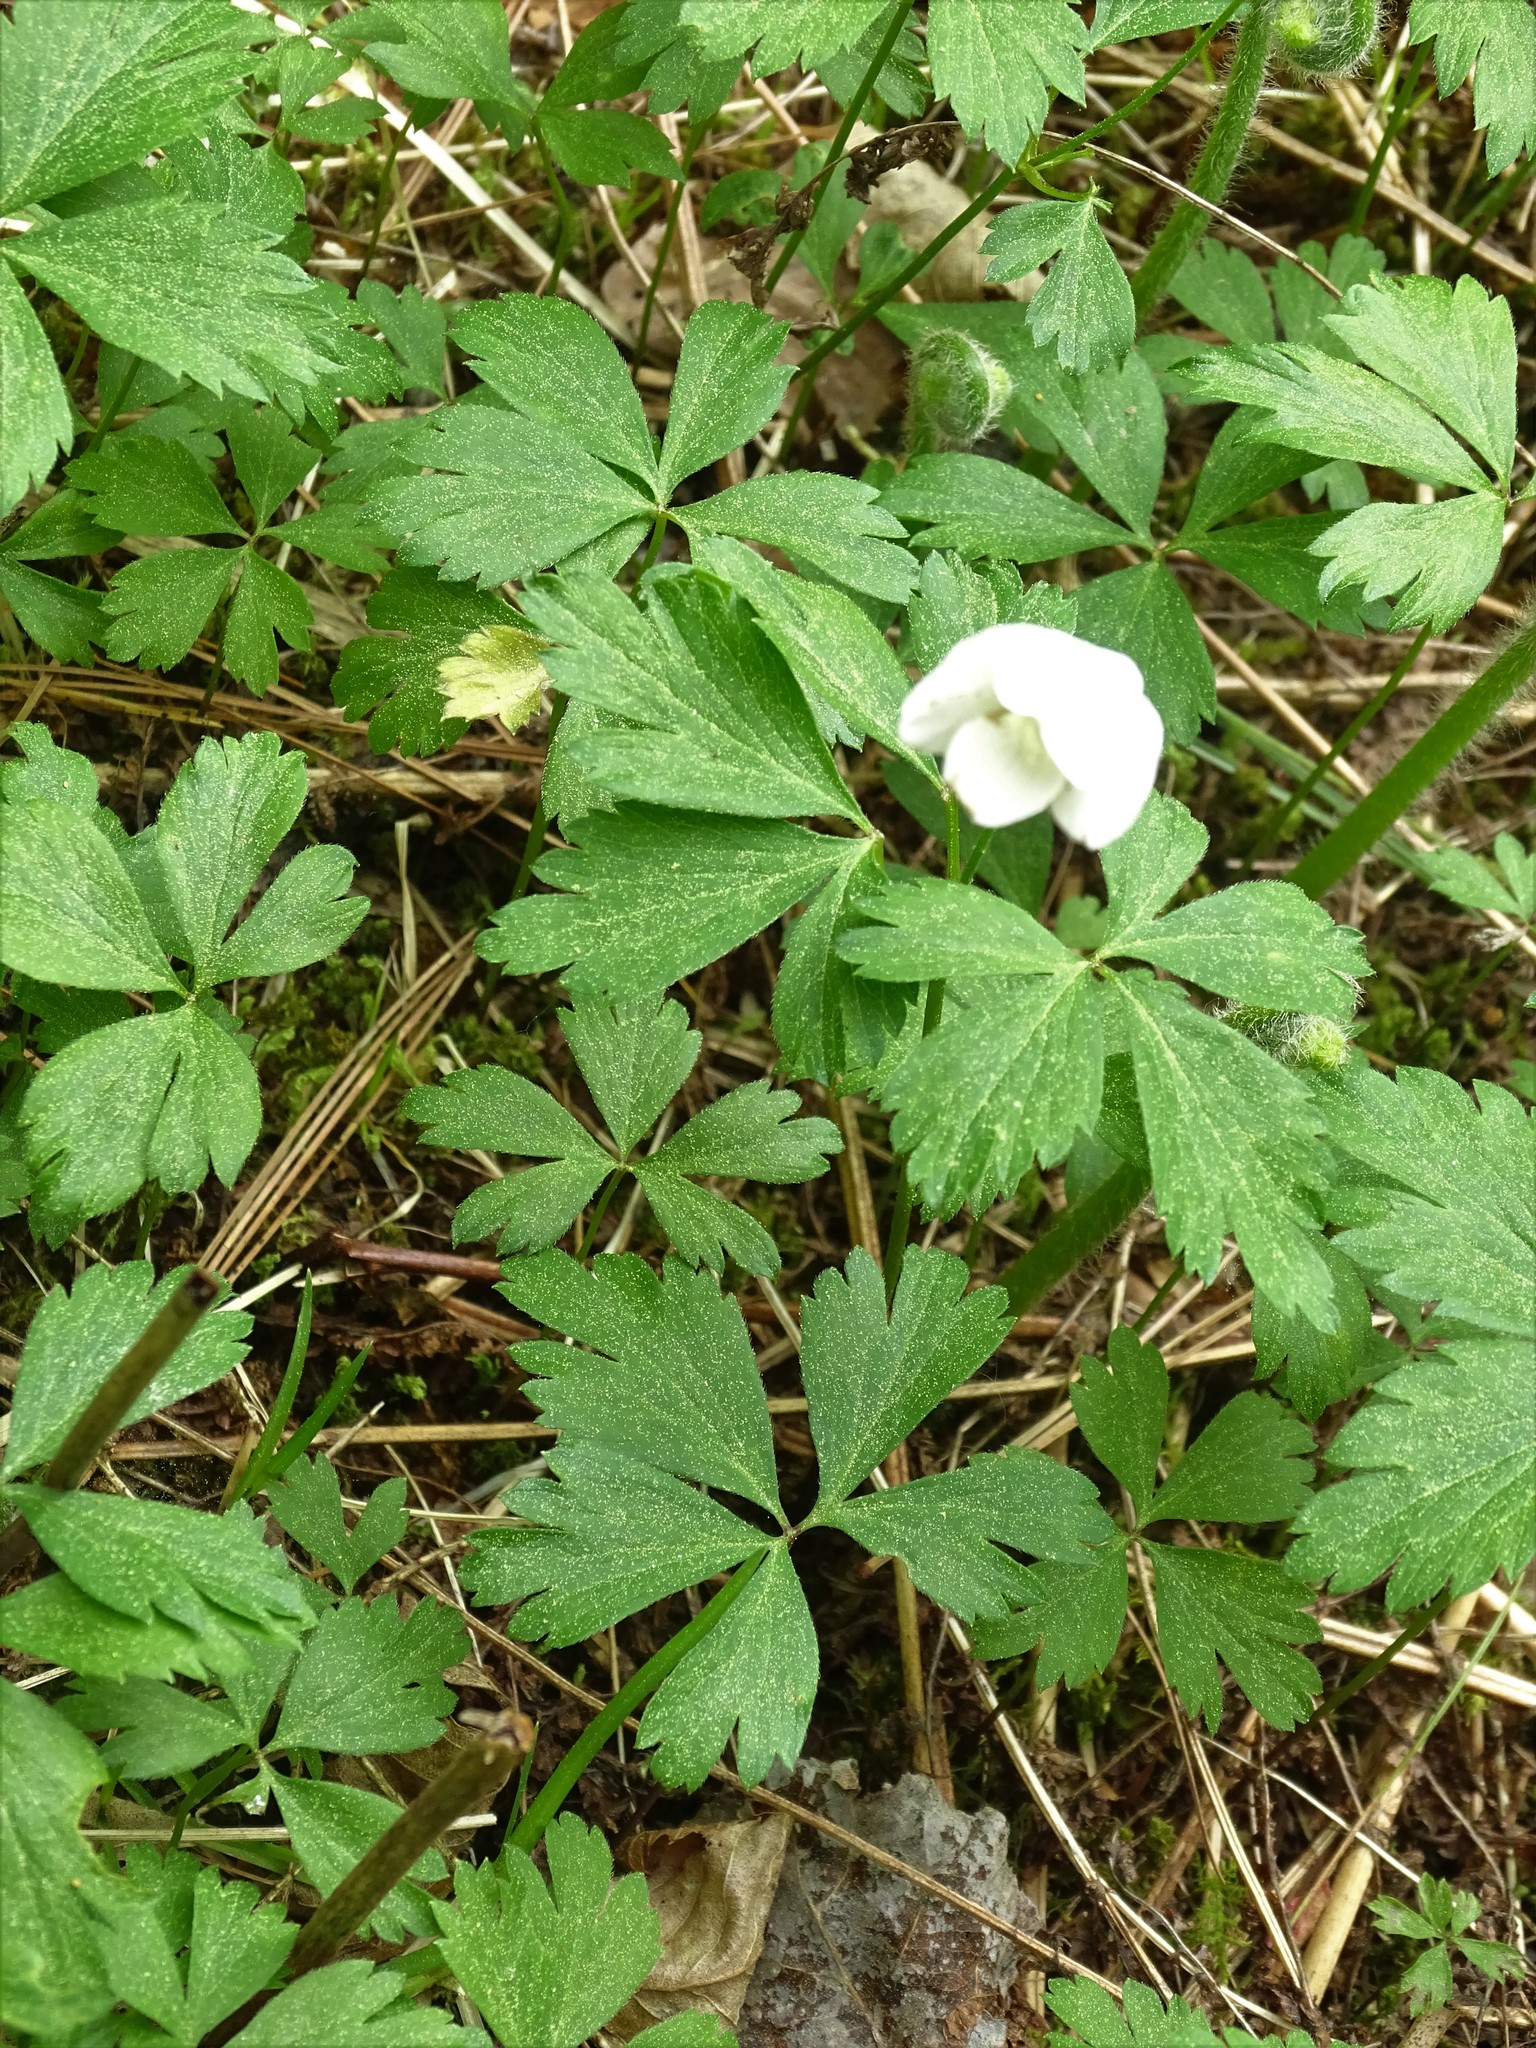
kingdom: Plantae
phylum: Tracheophyta
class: Magnoliopsida
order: Ranunculales
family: Ranunculaceae
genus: Anemone
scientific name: Anemone quinquefolia
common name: Wood anemone
